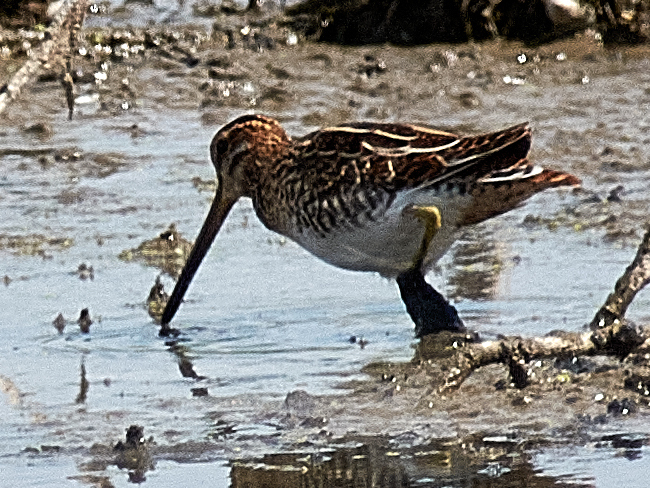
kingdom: Animalia
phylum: Chordata
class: Aves
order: Charadriiformes
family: Scolopacidae
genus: Gallinago
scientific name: Gallinago gallinago
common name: Common snipe
